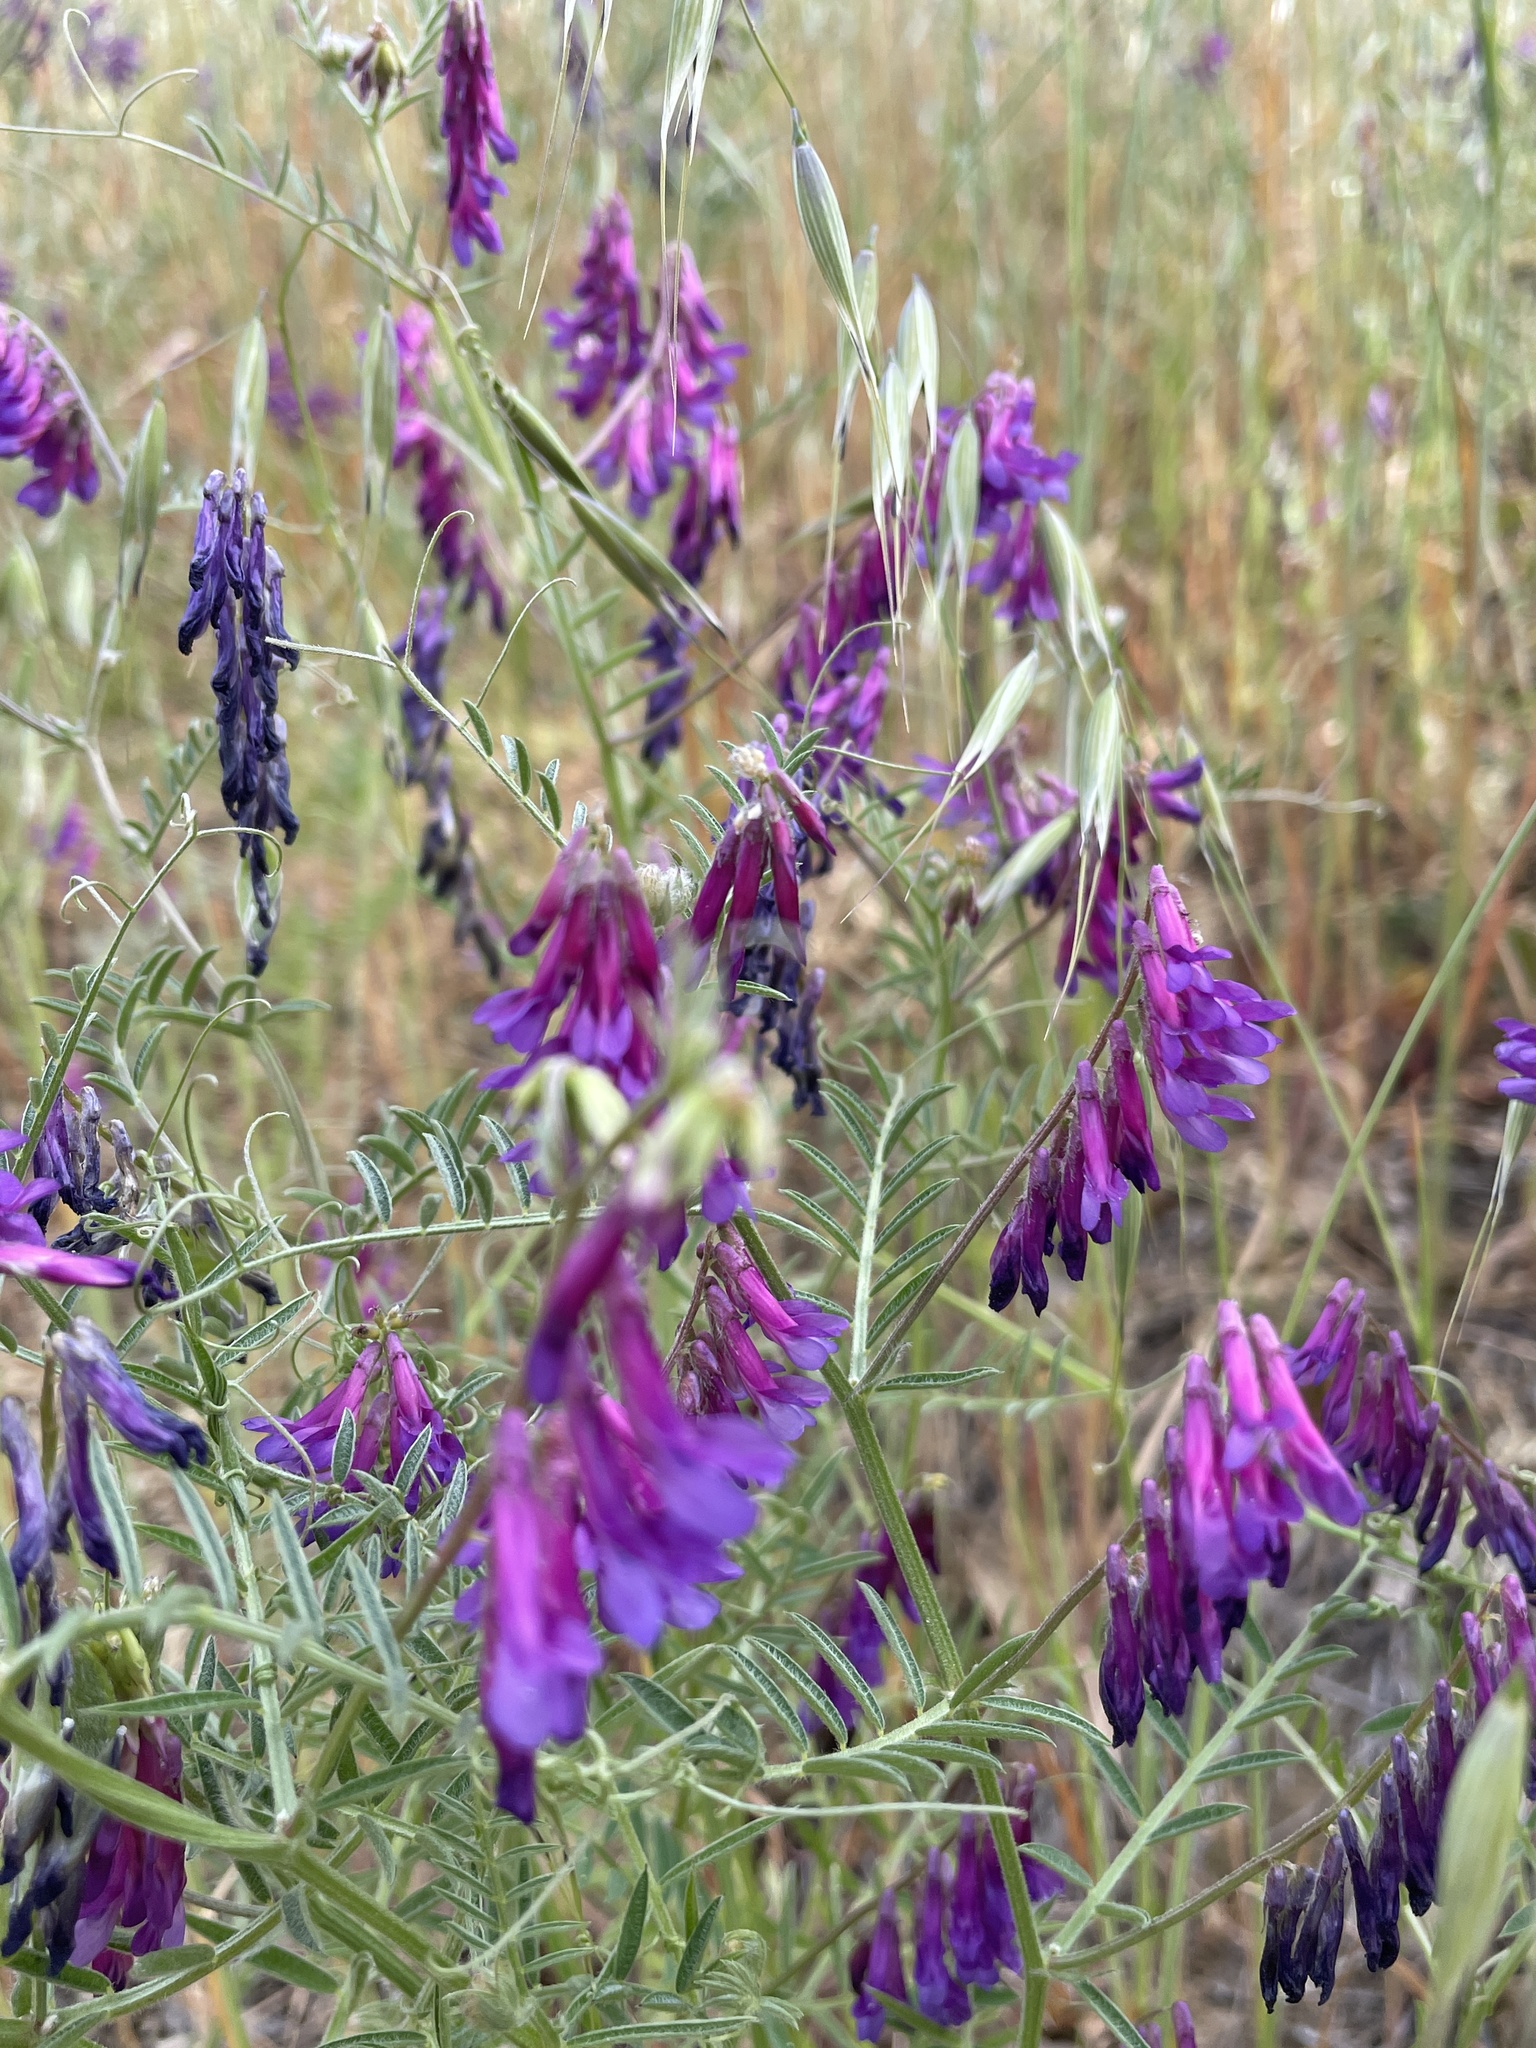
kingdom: Plantae
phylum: Tracheophyta
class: Magnoliopsida
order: Fabales
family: Fabaceae
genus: Vicia
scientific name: Vicia villosa
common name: Fodder vetch
